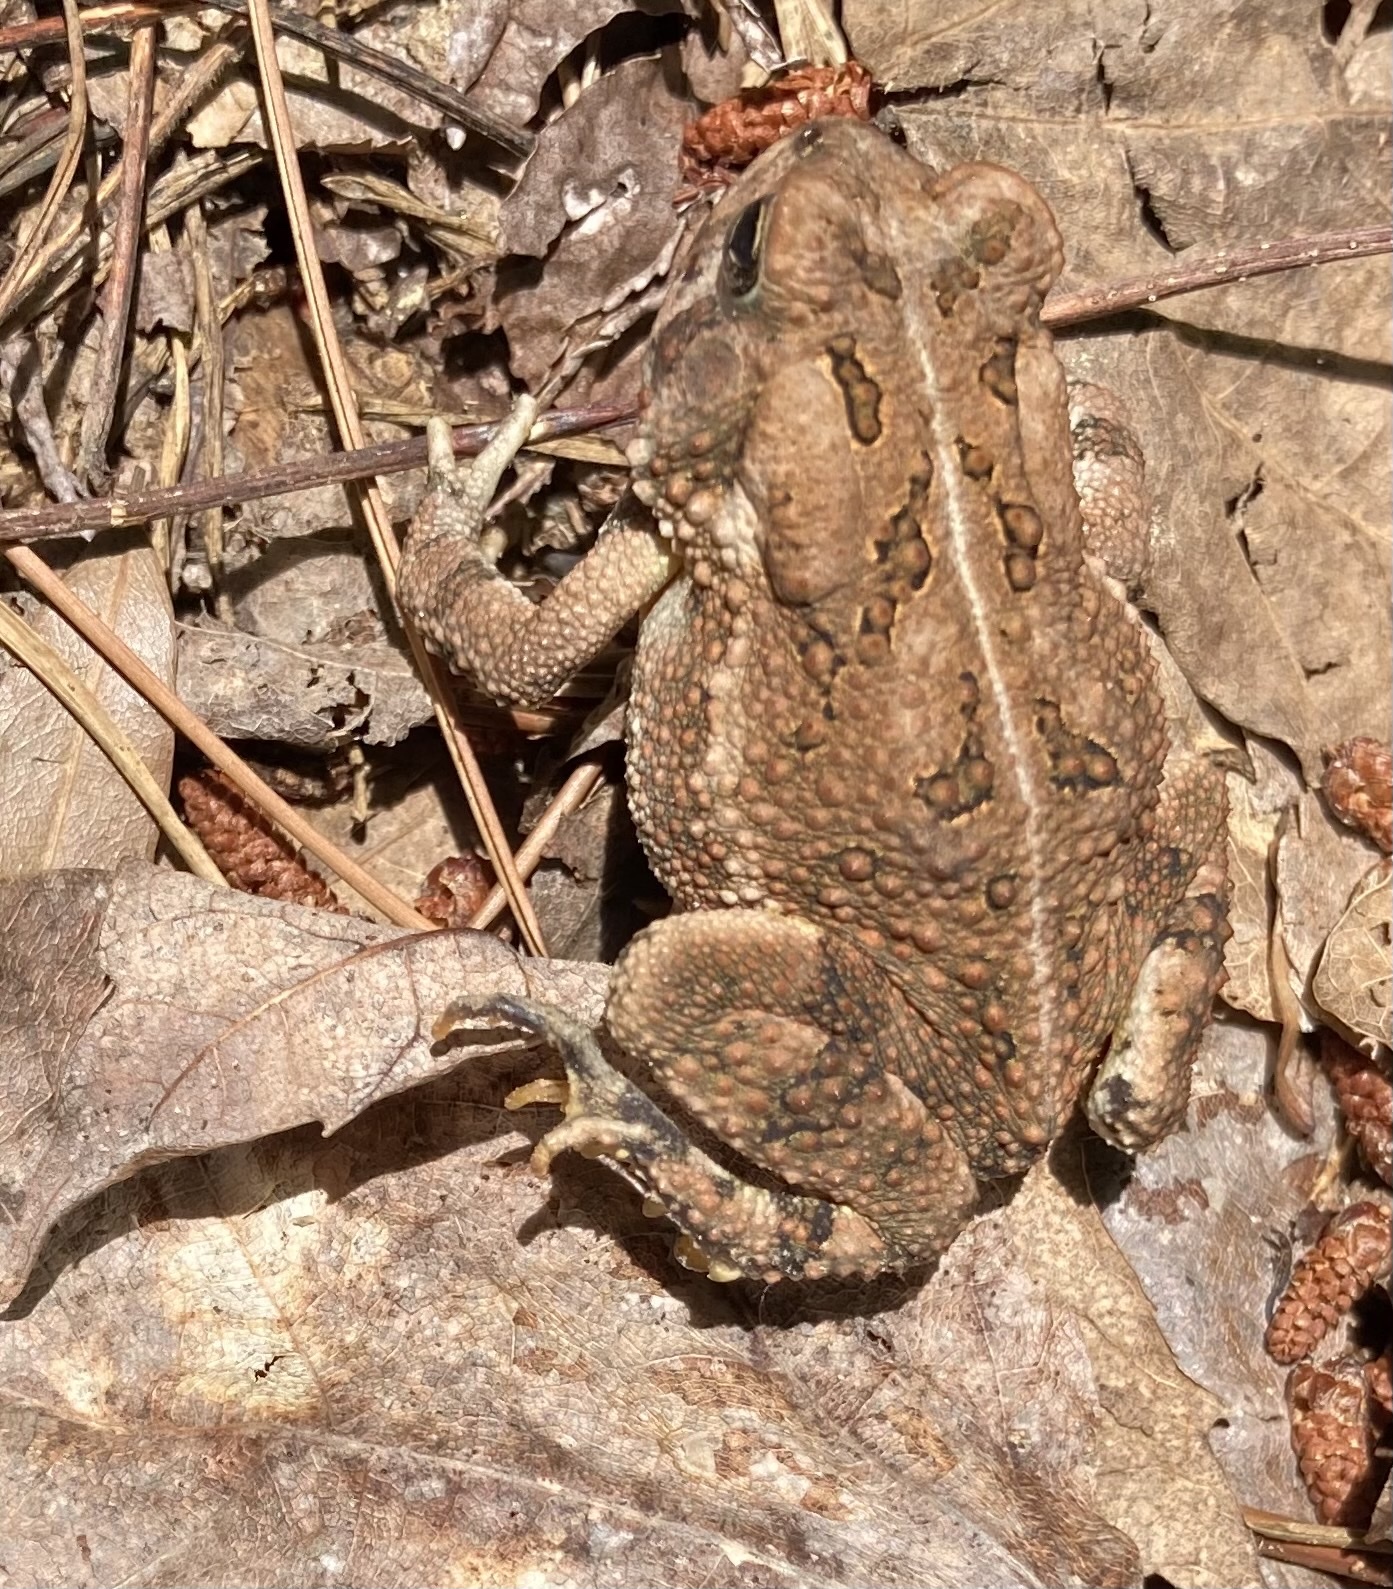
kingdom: Animalia
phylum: Chordata
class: Amphibia
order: Anura
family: Bufonidae
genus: Anaxyrus
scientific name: Anaxyrus fowleri
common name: Fowler's toad
